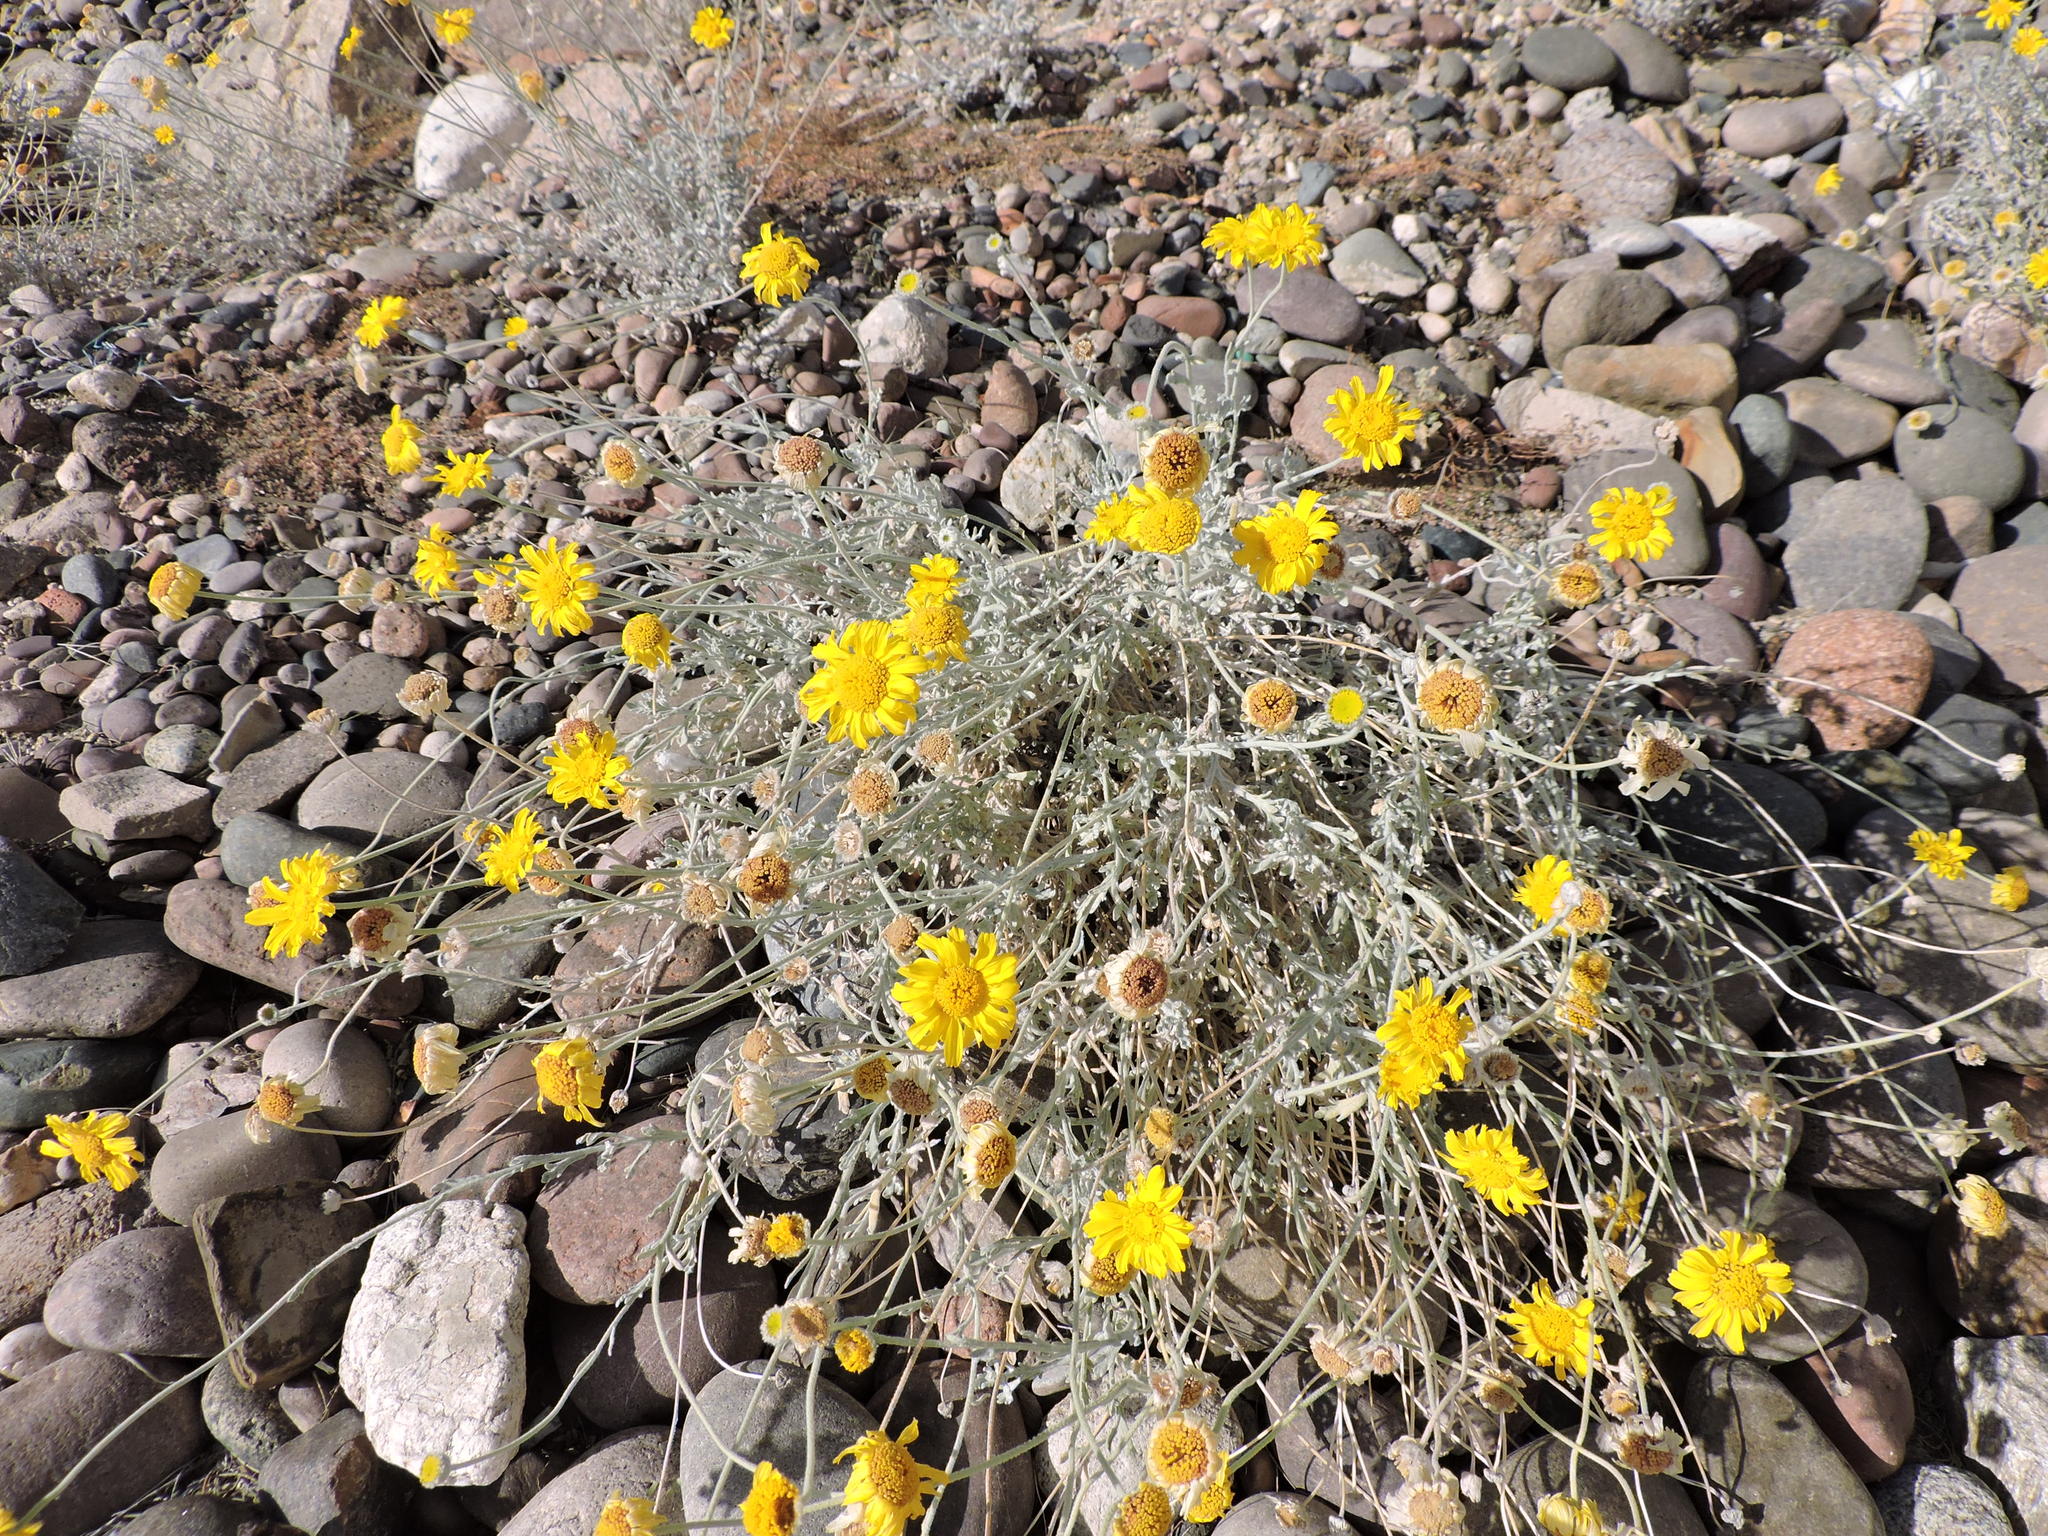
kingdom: Plantae
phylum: Tracheophyta
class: Magnoliopsida
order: Asterales
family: Asteraceae
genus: Baileya
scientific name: Baileya multiradiata
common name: Desert-marigold
